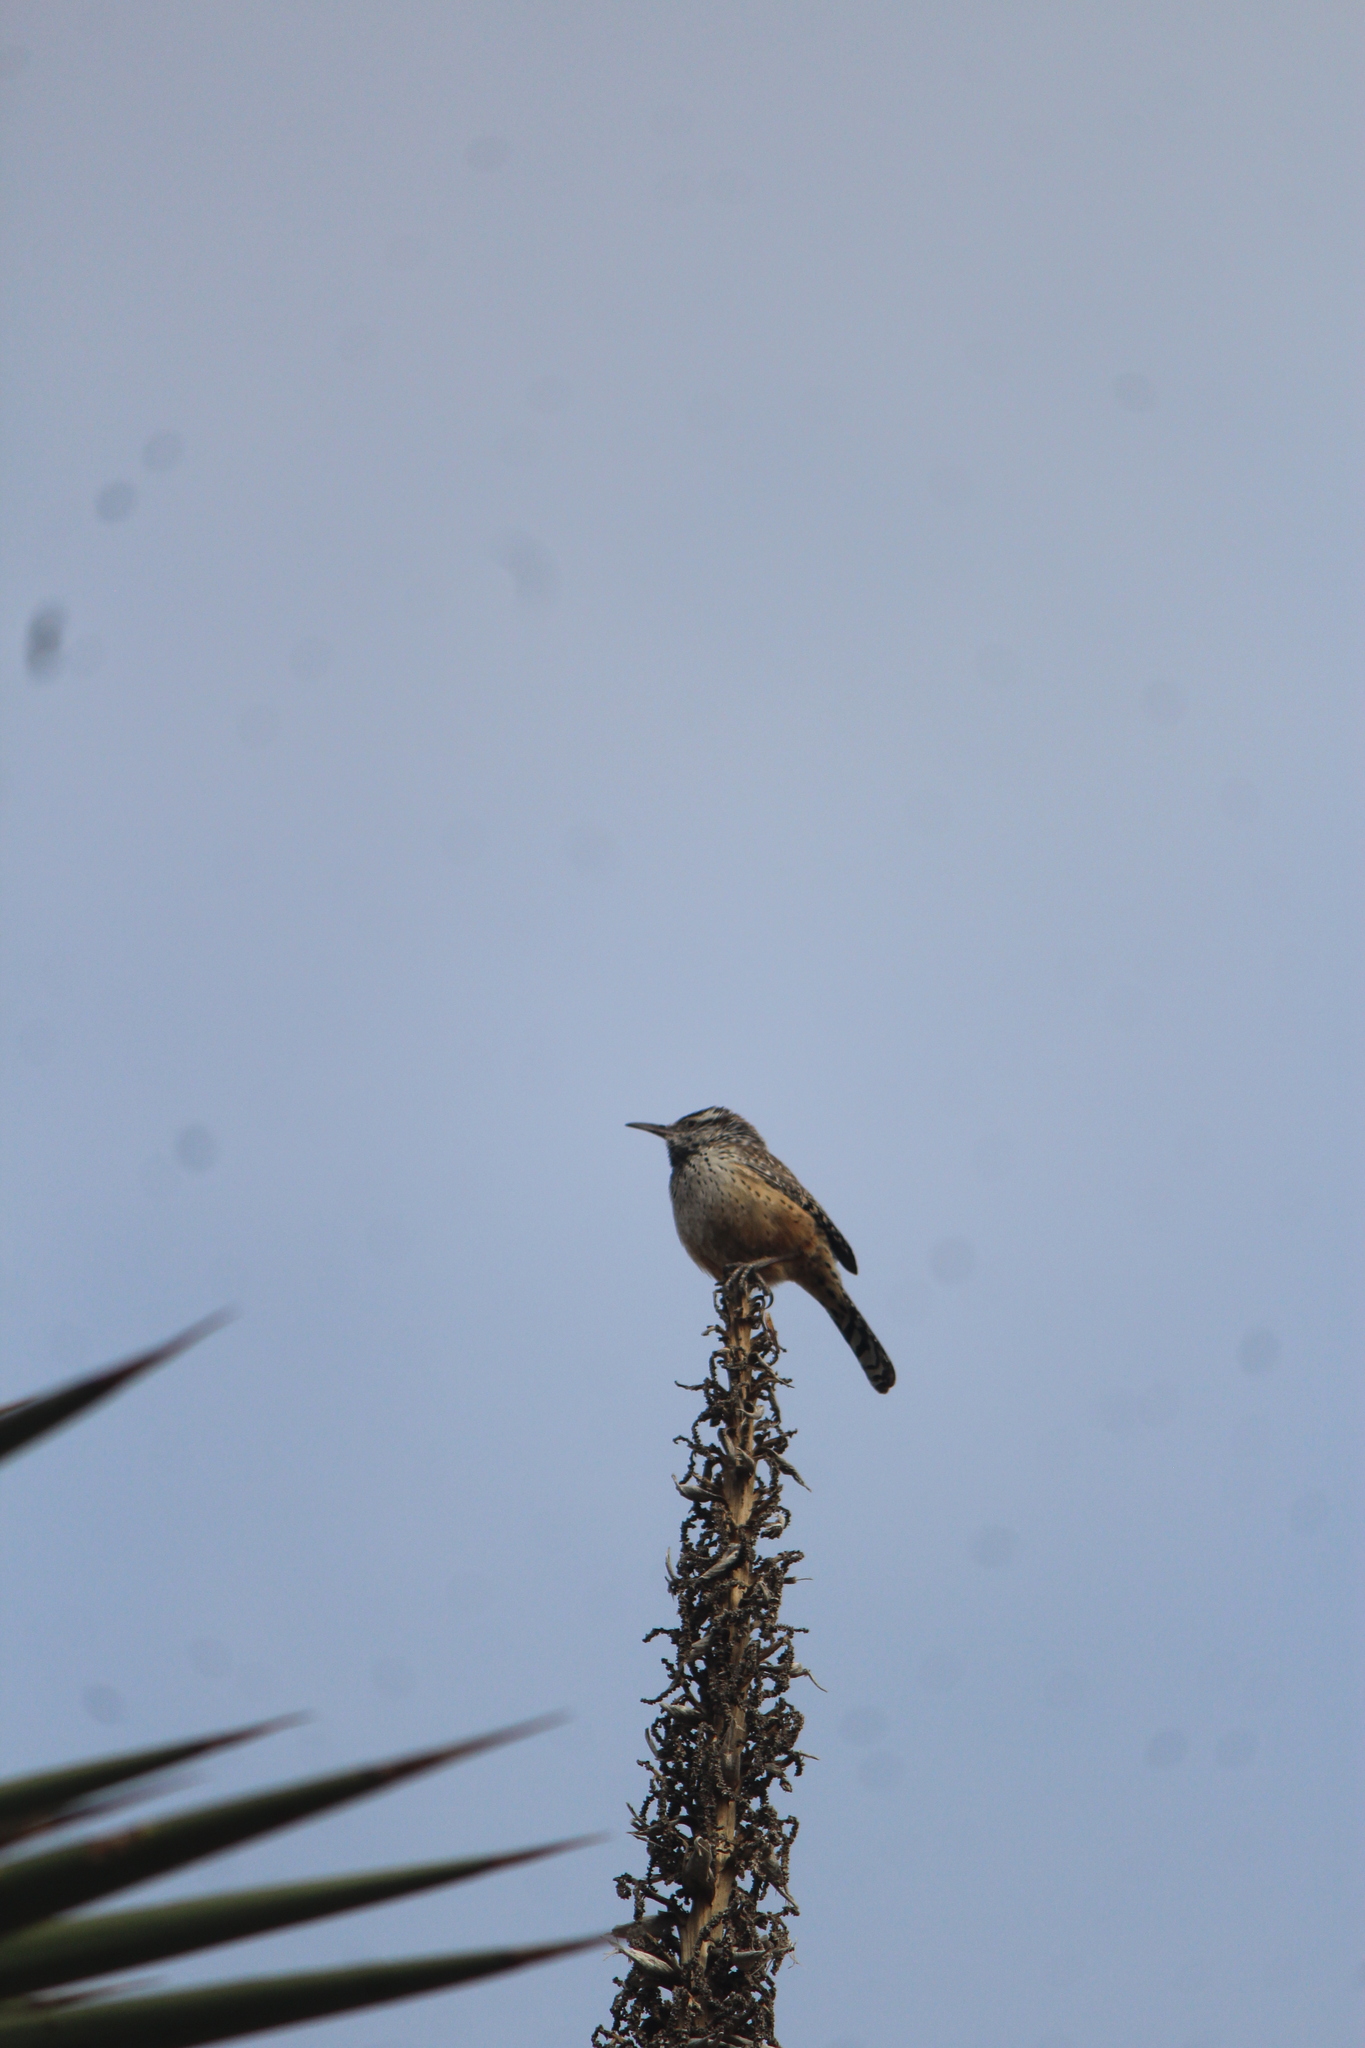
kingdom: Animalia
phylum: Chordata
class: Aves
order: Passeriformes
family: Troglodytidae
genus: Campylorhynchus
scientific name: Campylorhynchus brunneicapillus
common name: Cactus wren
